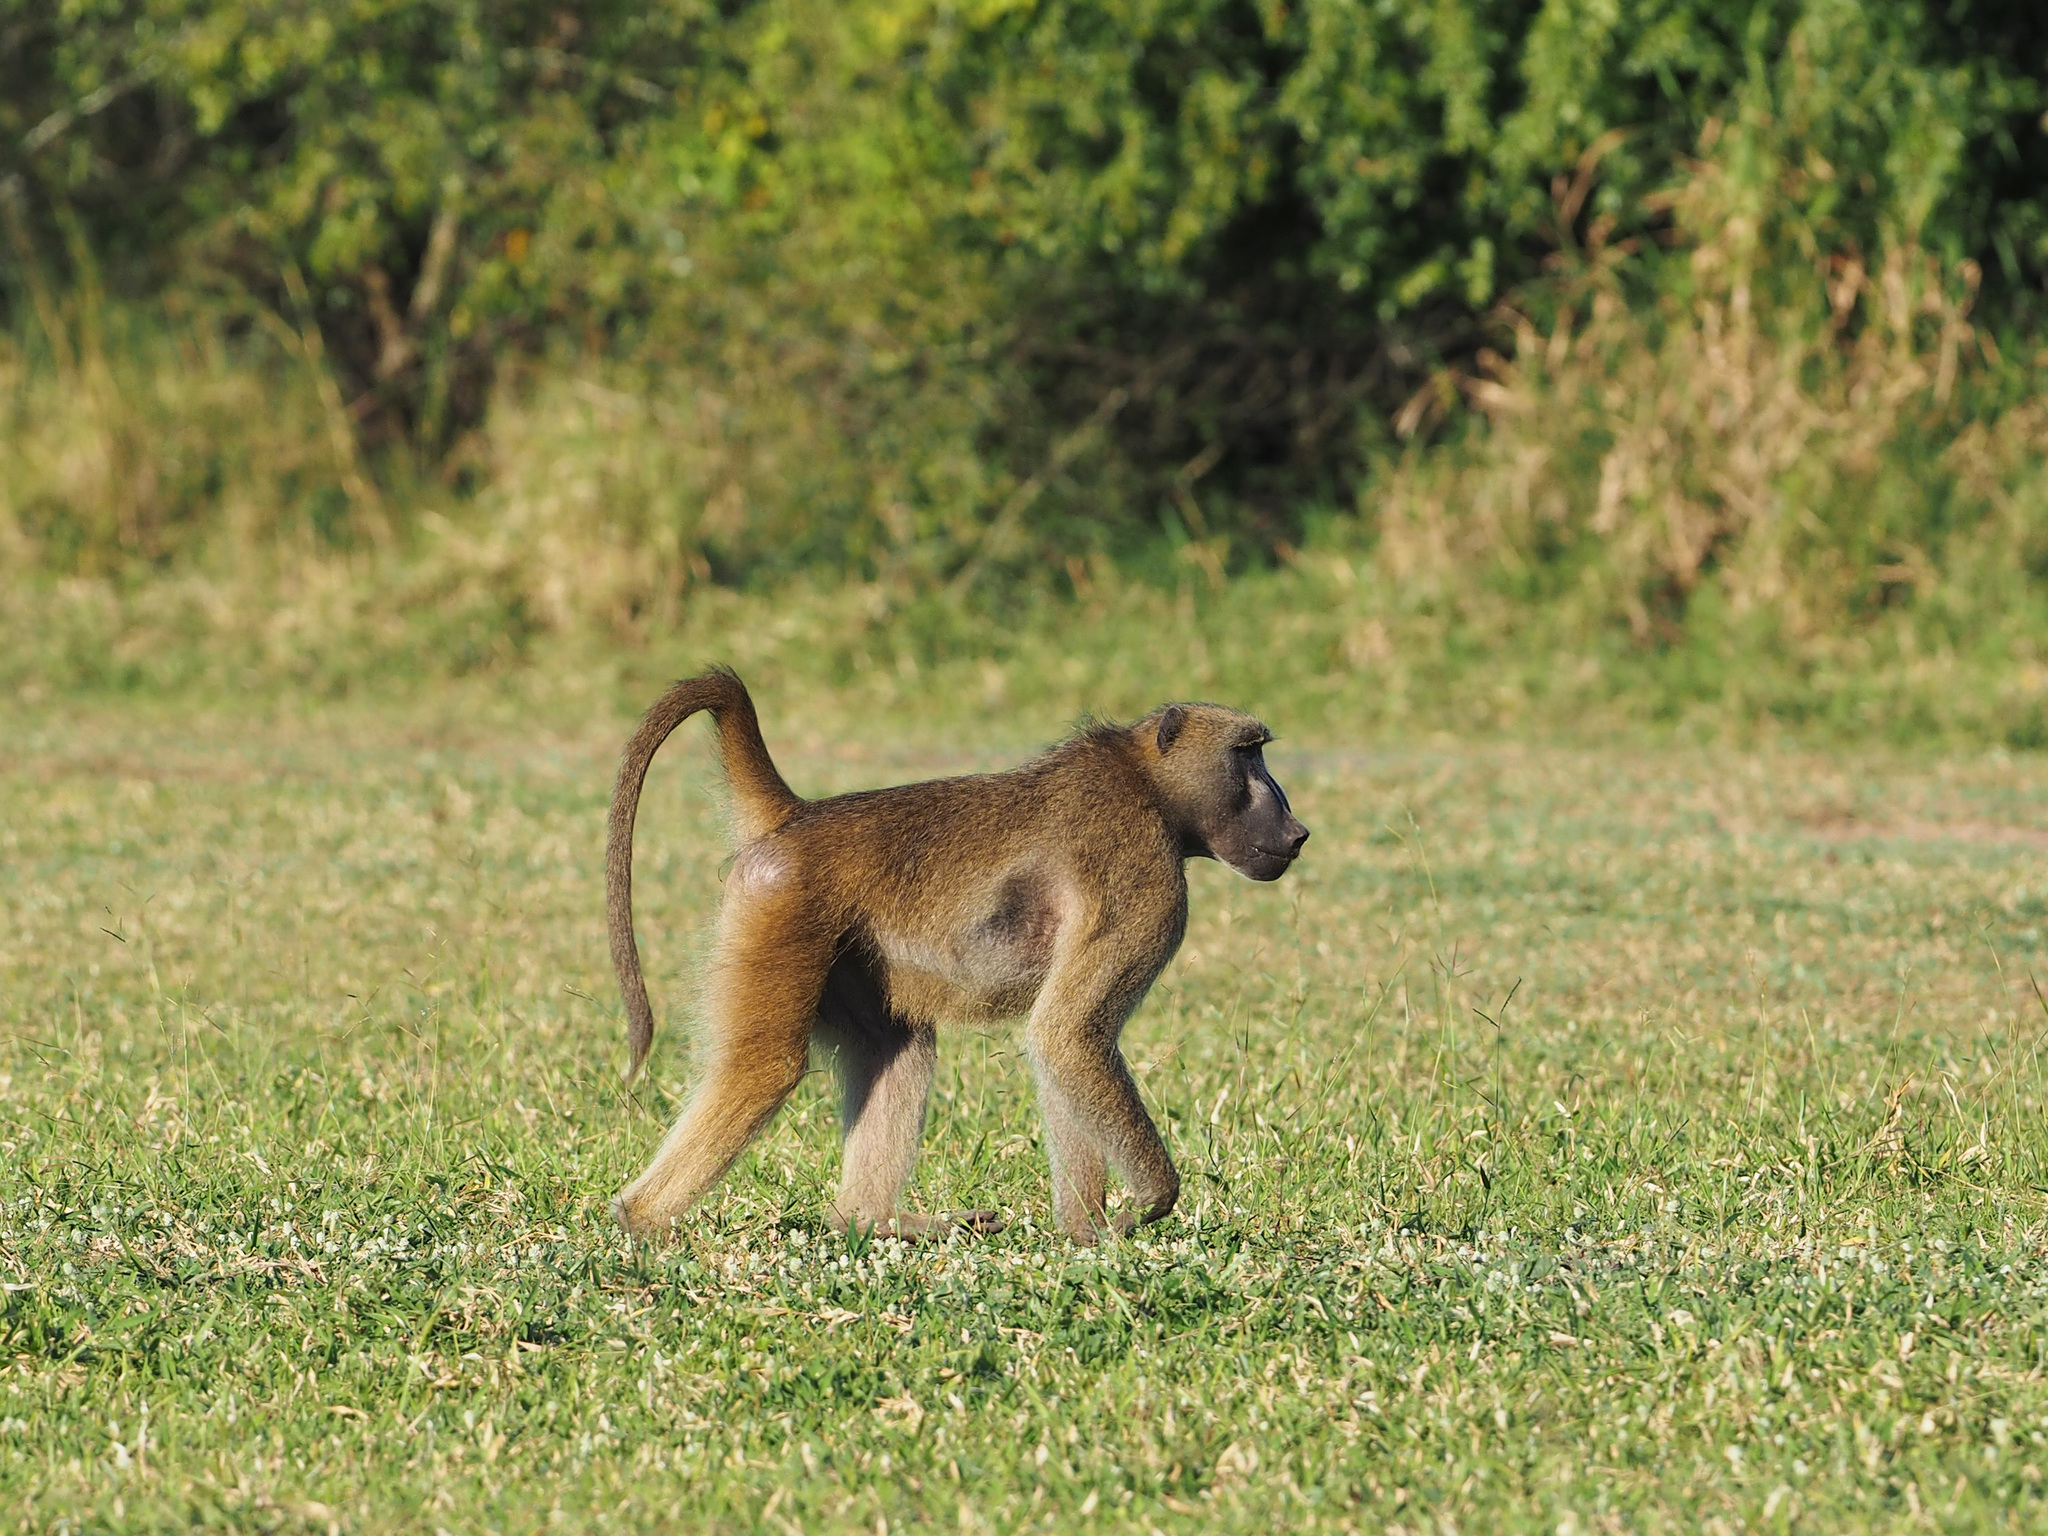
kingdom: Animalia
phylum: Chordata
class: Mammalia
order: Primates
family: Cercopithecidae
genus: Papio
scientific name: Papio ursinus
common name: Chacma baboon
